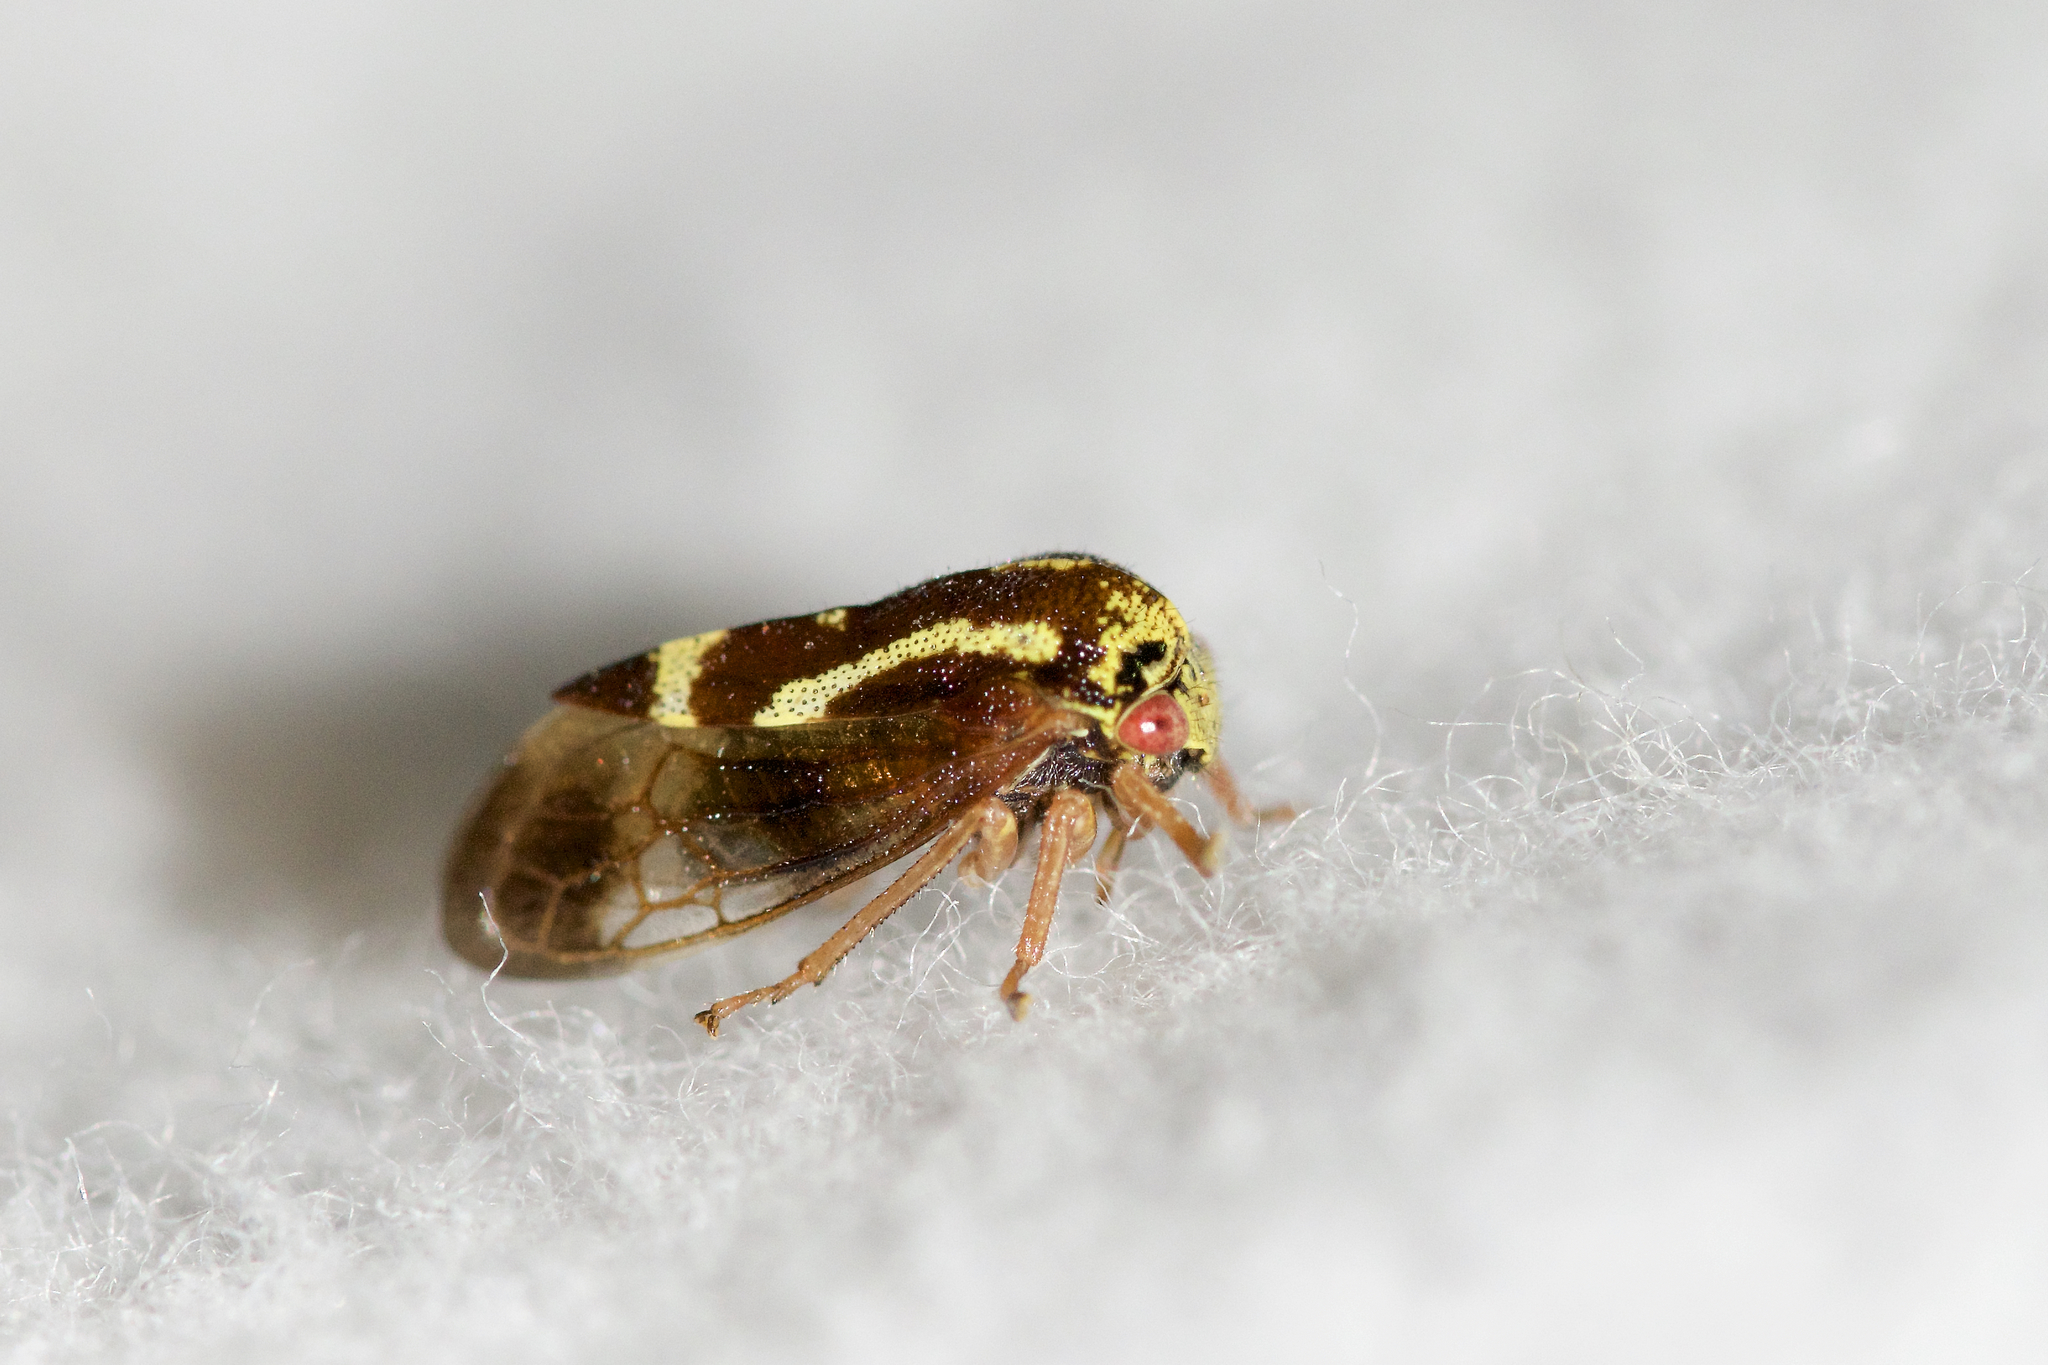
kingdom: Animalia
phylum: Arthropoda
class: Insecta
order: Hemiptera
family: Membracidae
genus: Ophiderma
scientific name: Ophiderma flava
